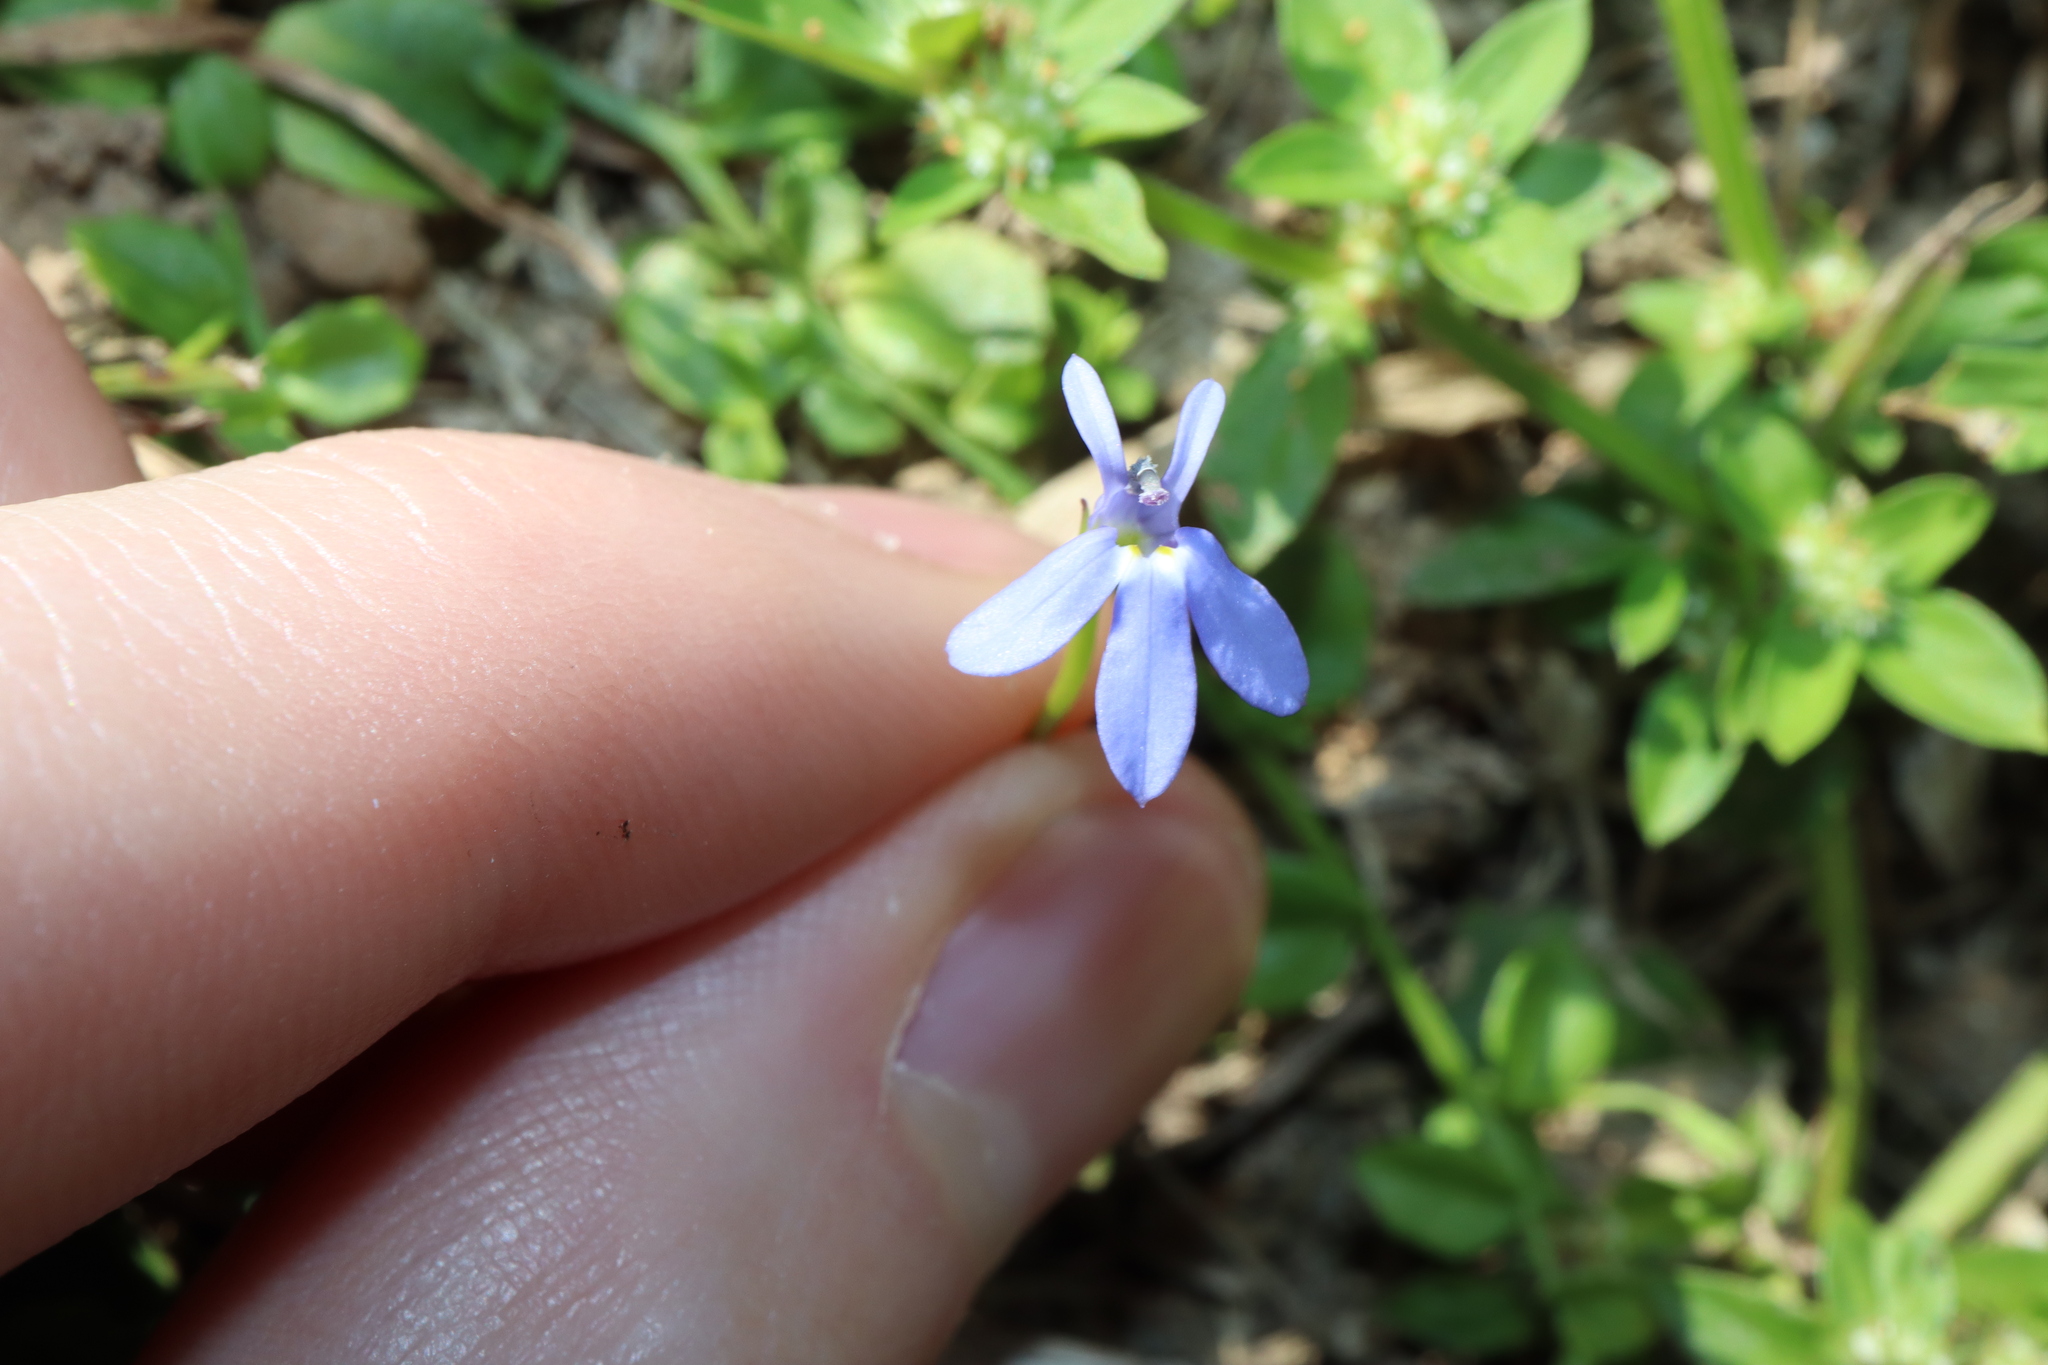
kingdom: Plantae
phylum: Tracheophyta
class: Magnoliopsida
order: Asterales
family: Campanulaceae
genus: Lobelia
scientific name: Lobelia quadrangularis
